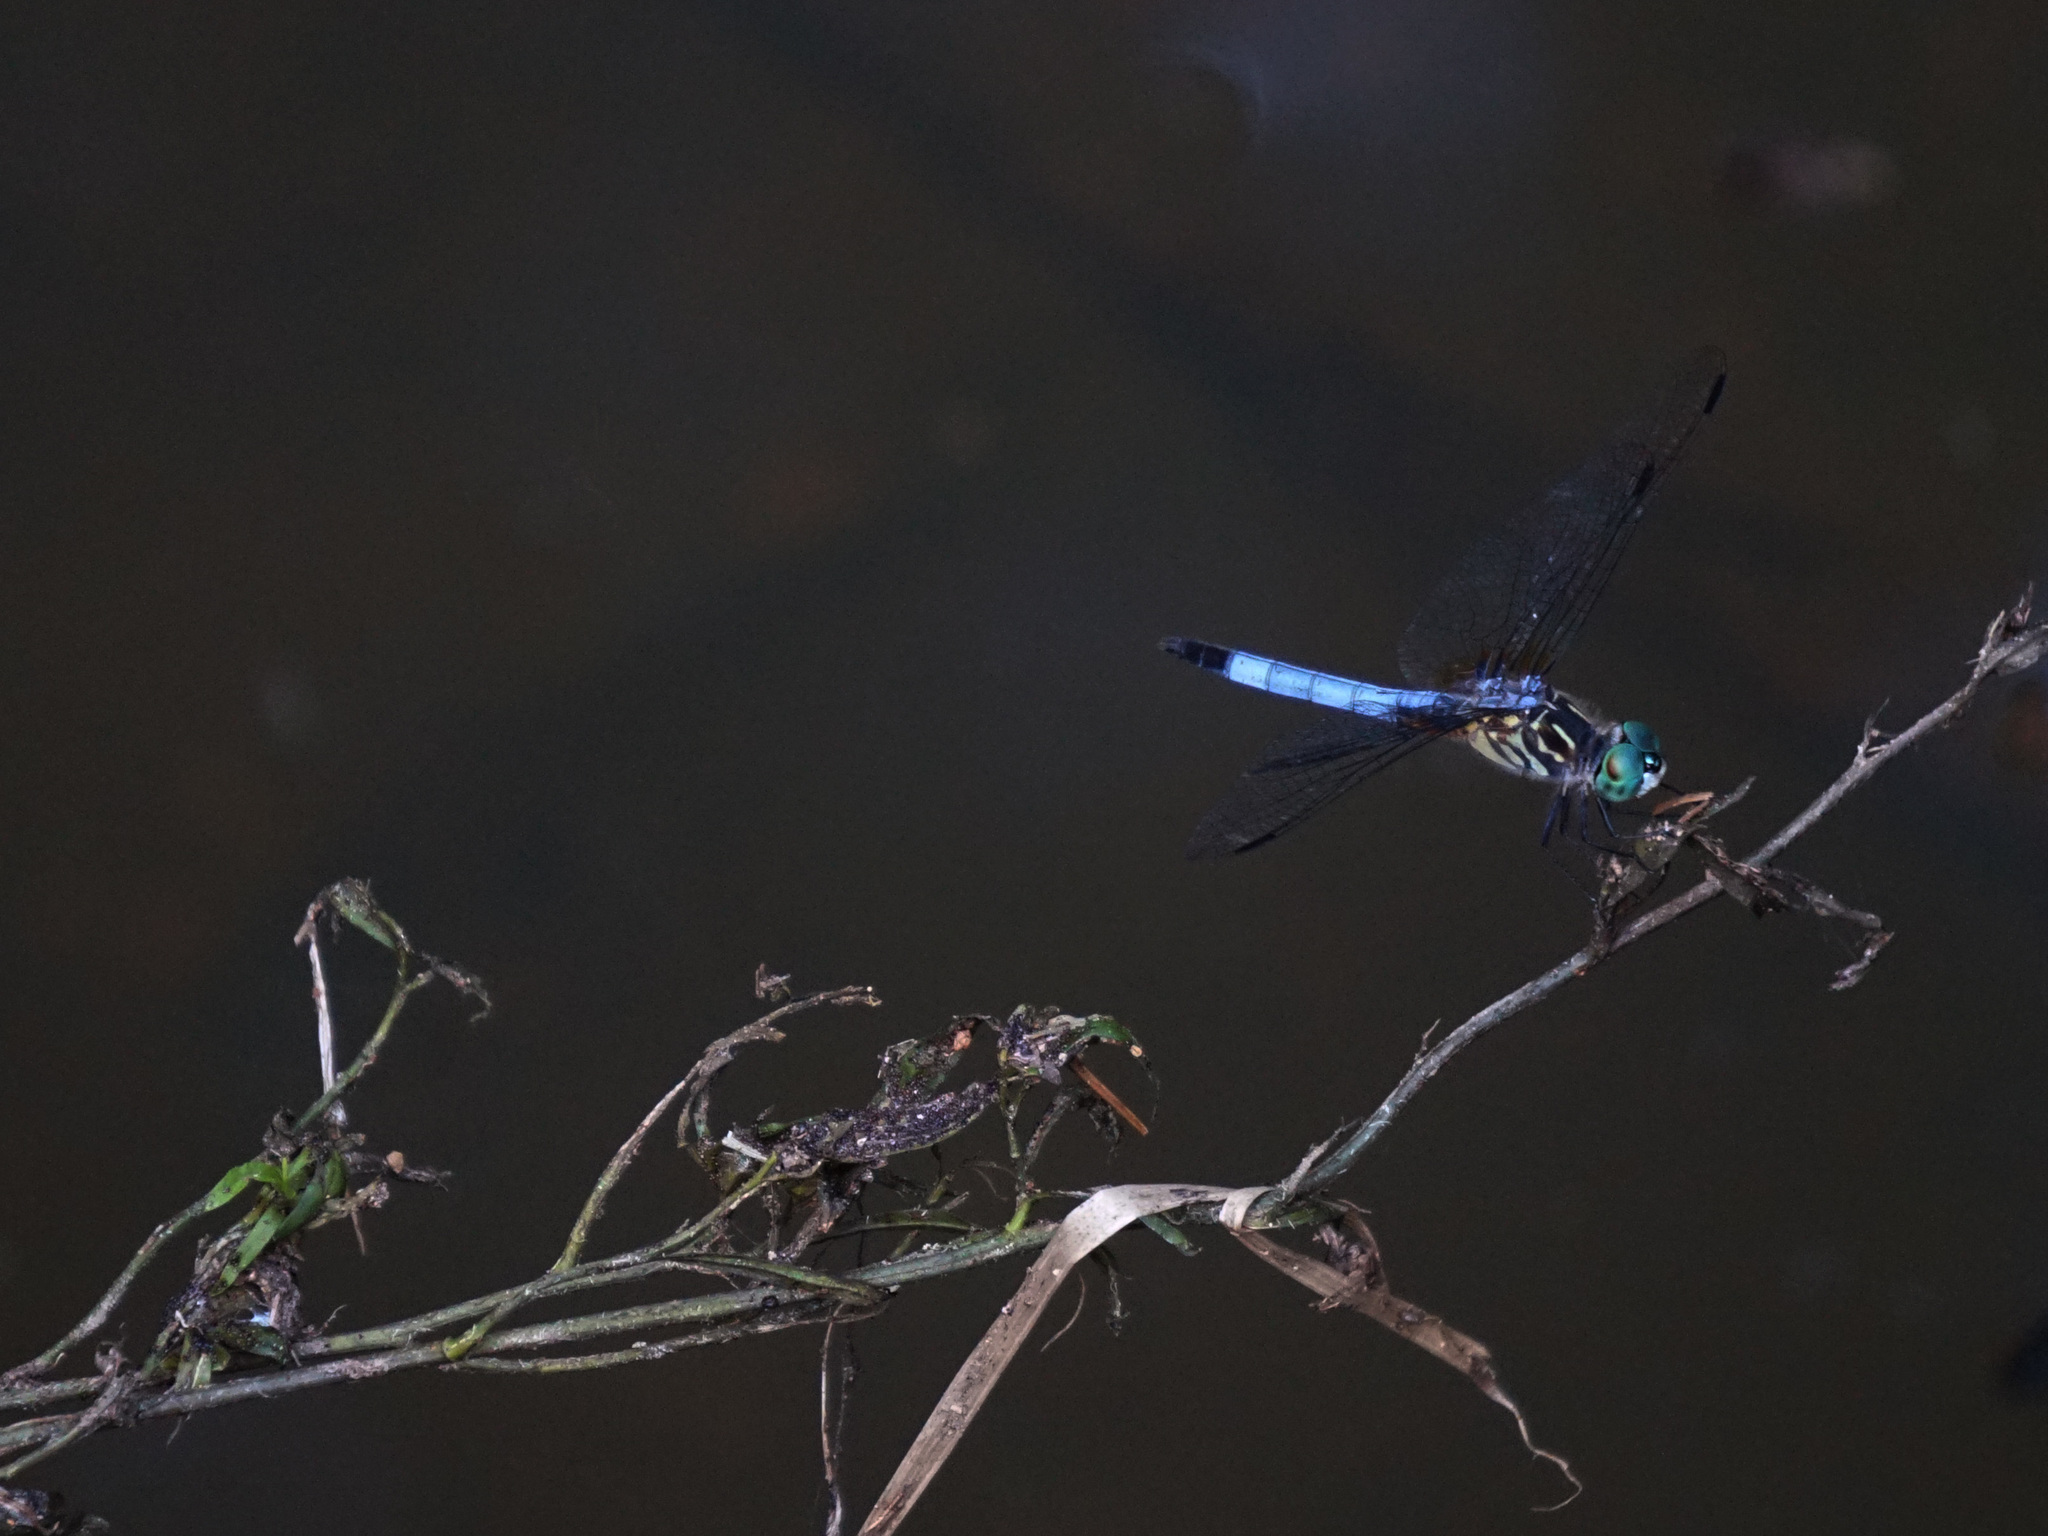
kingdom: Animalia
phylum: Arthropoda
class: Insecta
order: Odonata
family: Libellulidae
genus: Pachydiplax
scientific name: Pachydiplax longipennis
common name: Blue dasher
